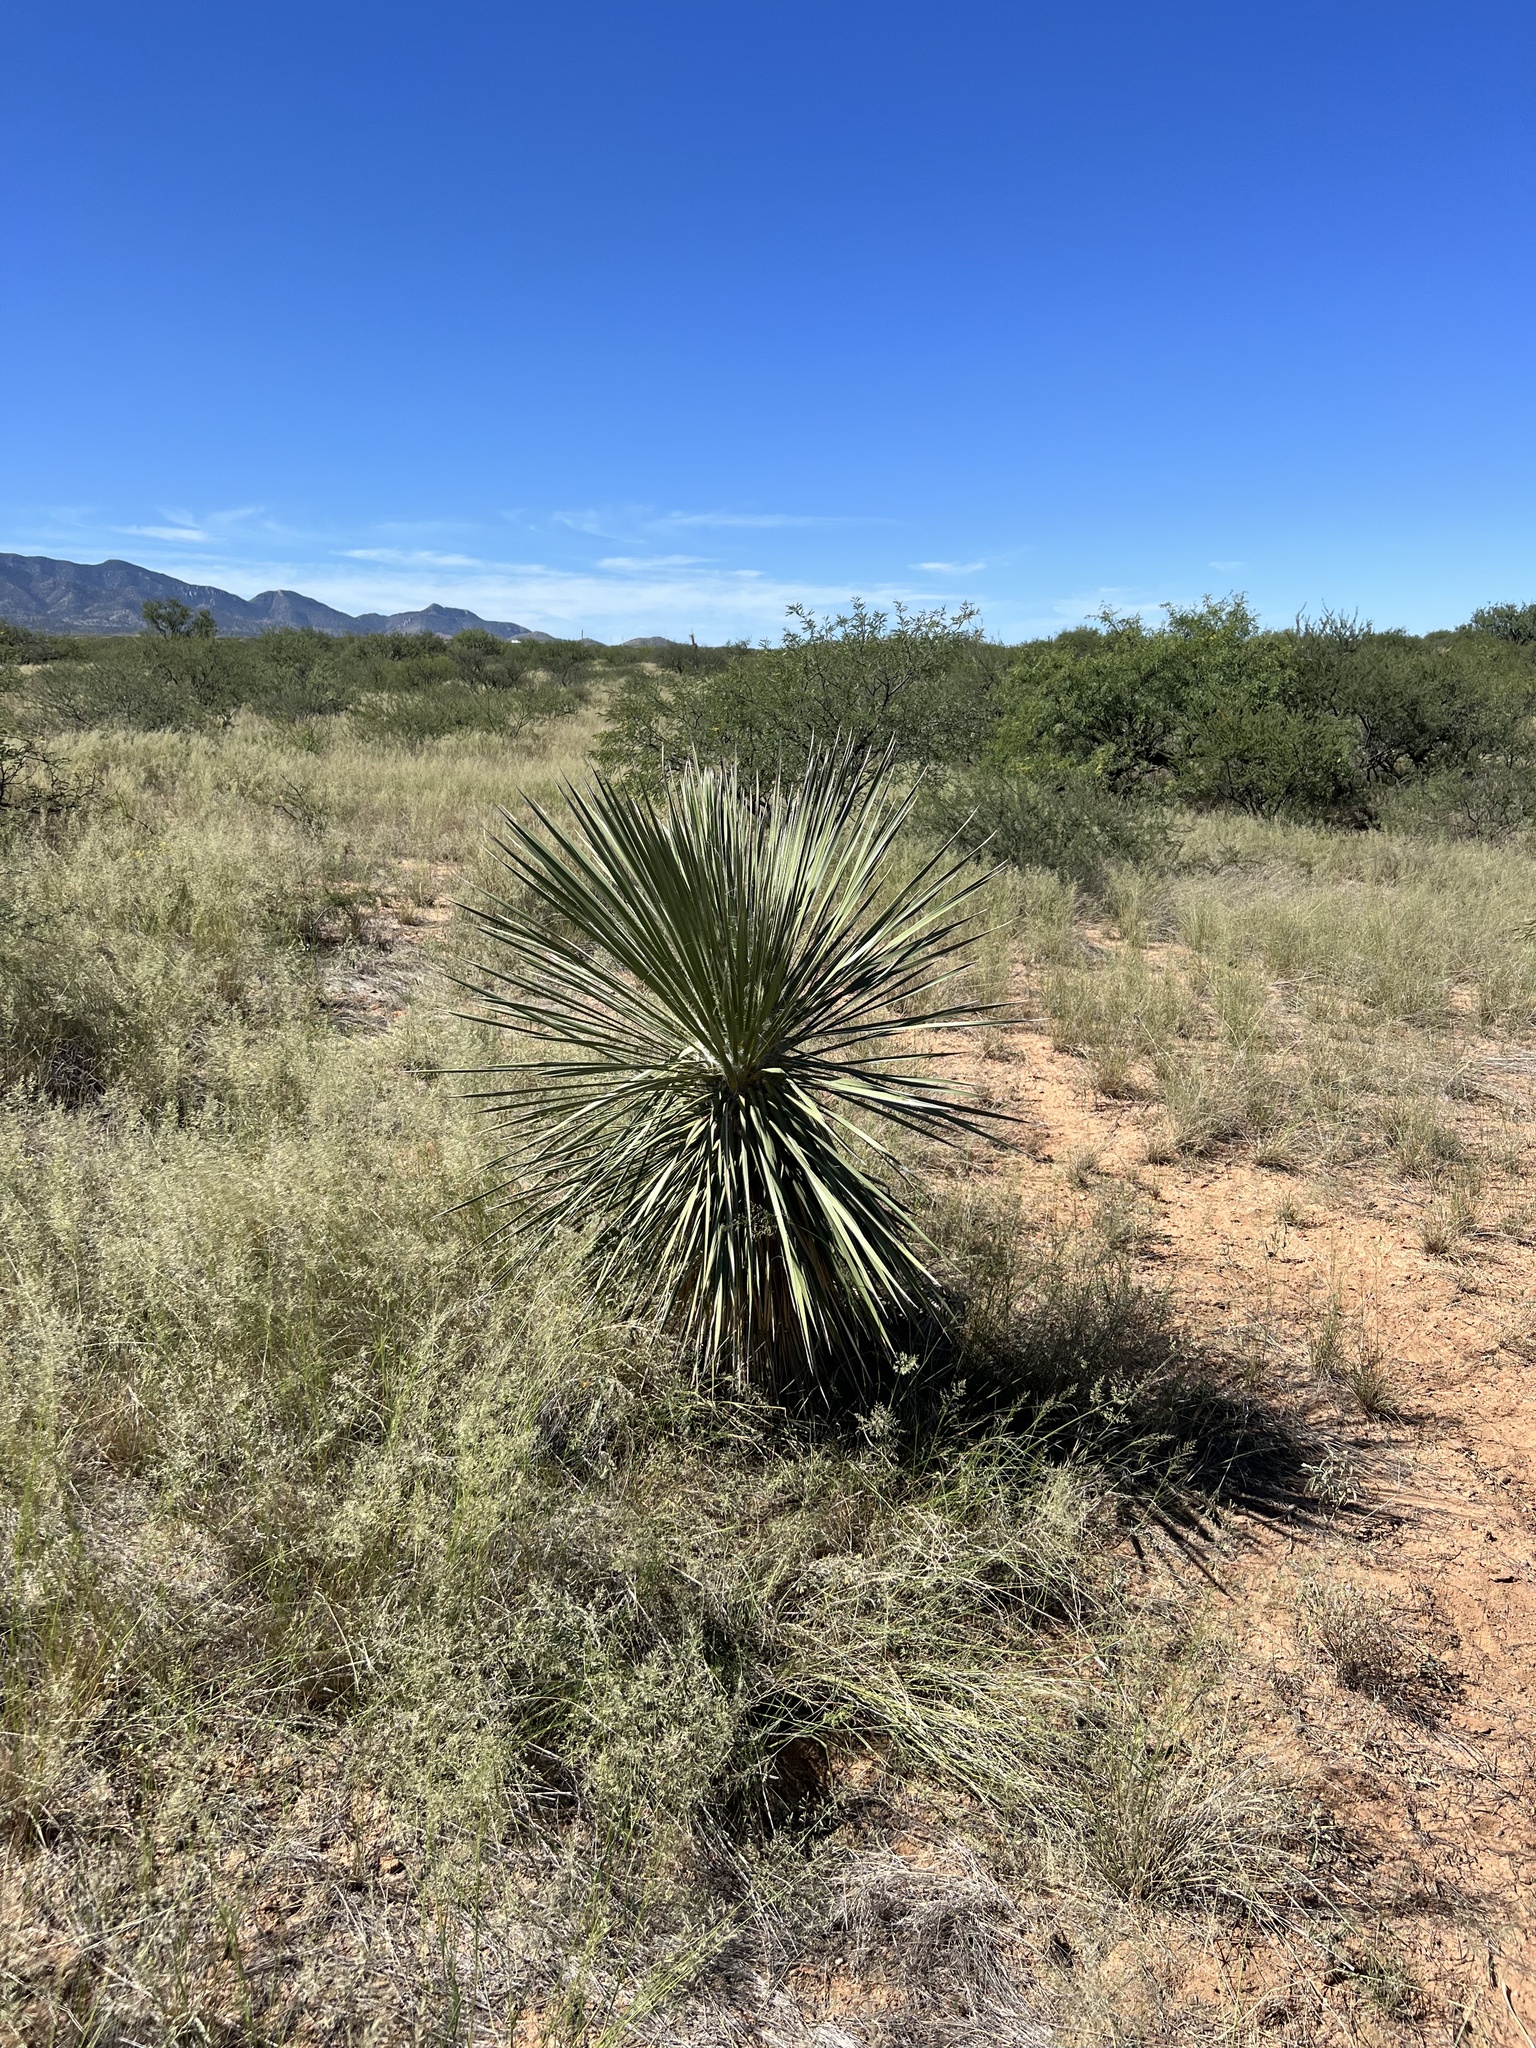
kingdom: Plantae
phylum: Tracheophyta
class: Liliopsida
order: Asparagales
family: Asparagaceae
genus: Yucca
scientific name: Yucca elata
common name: Palmella
